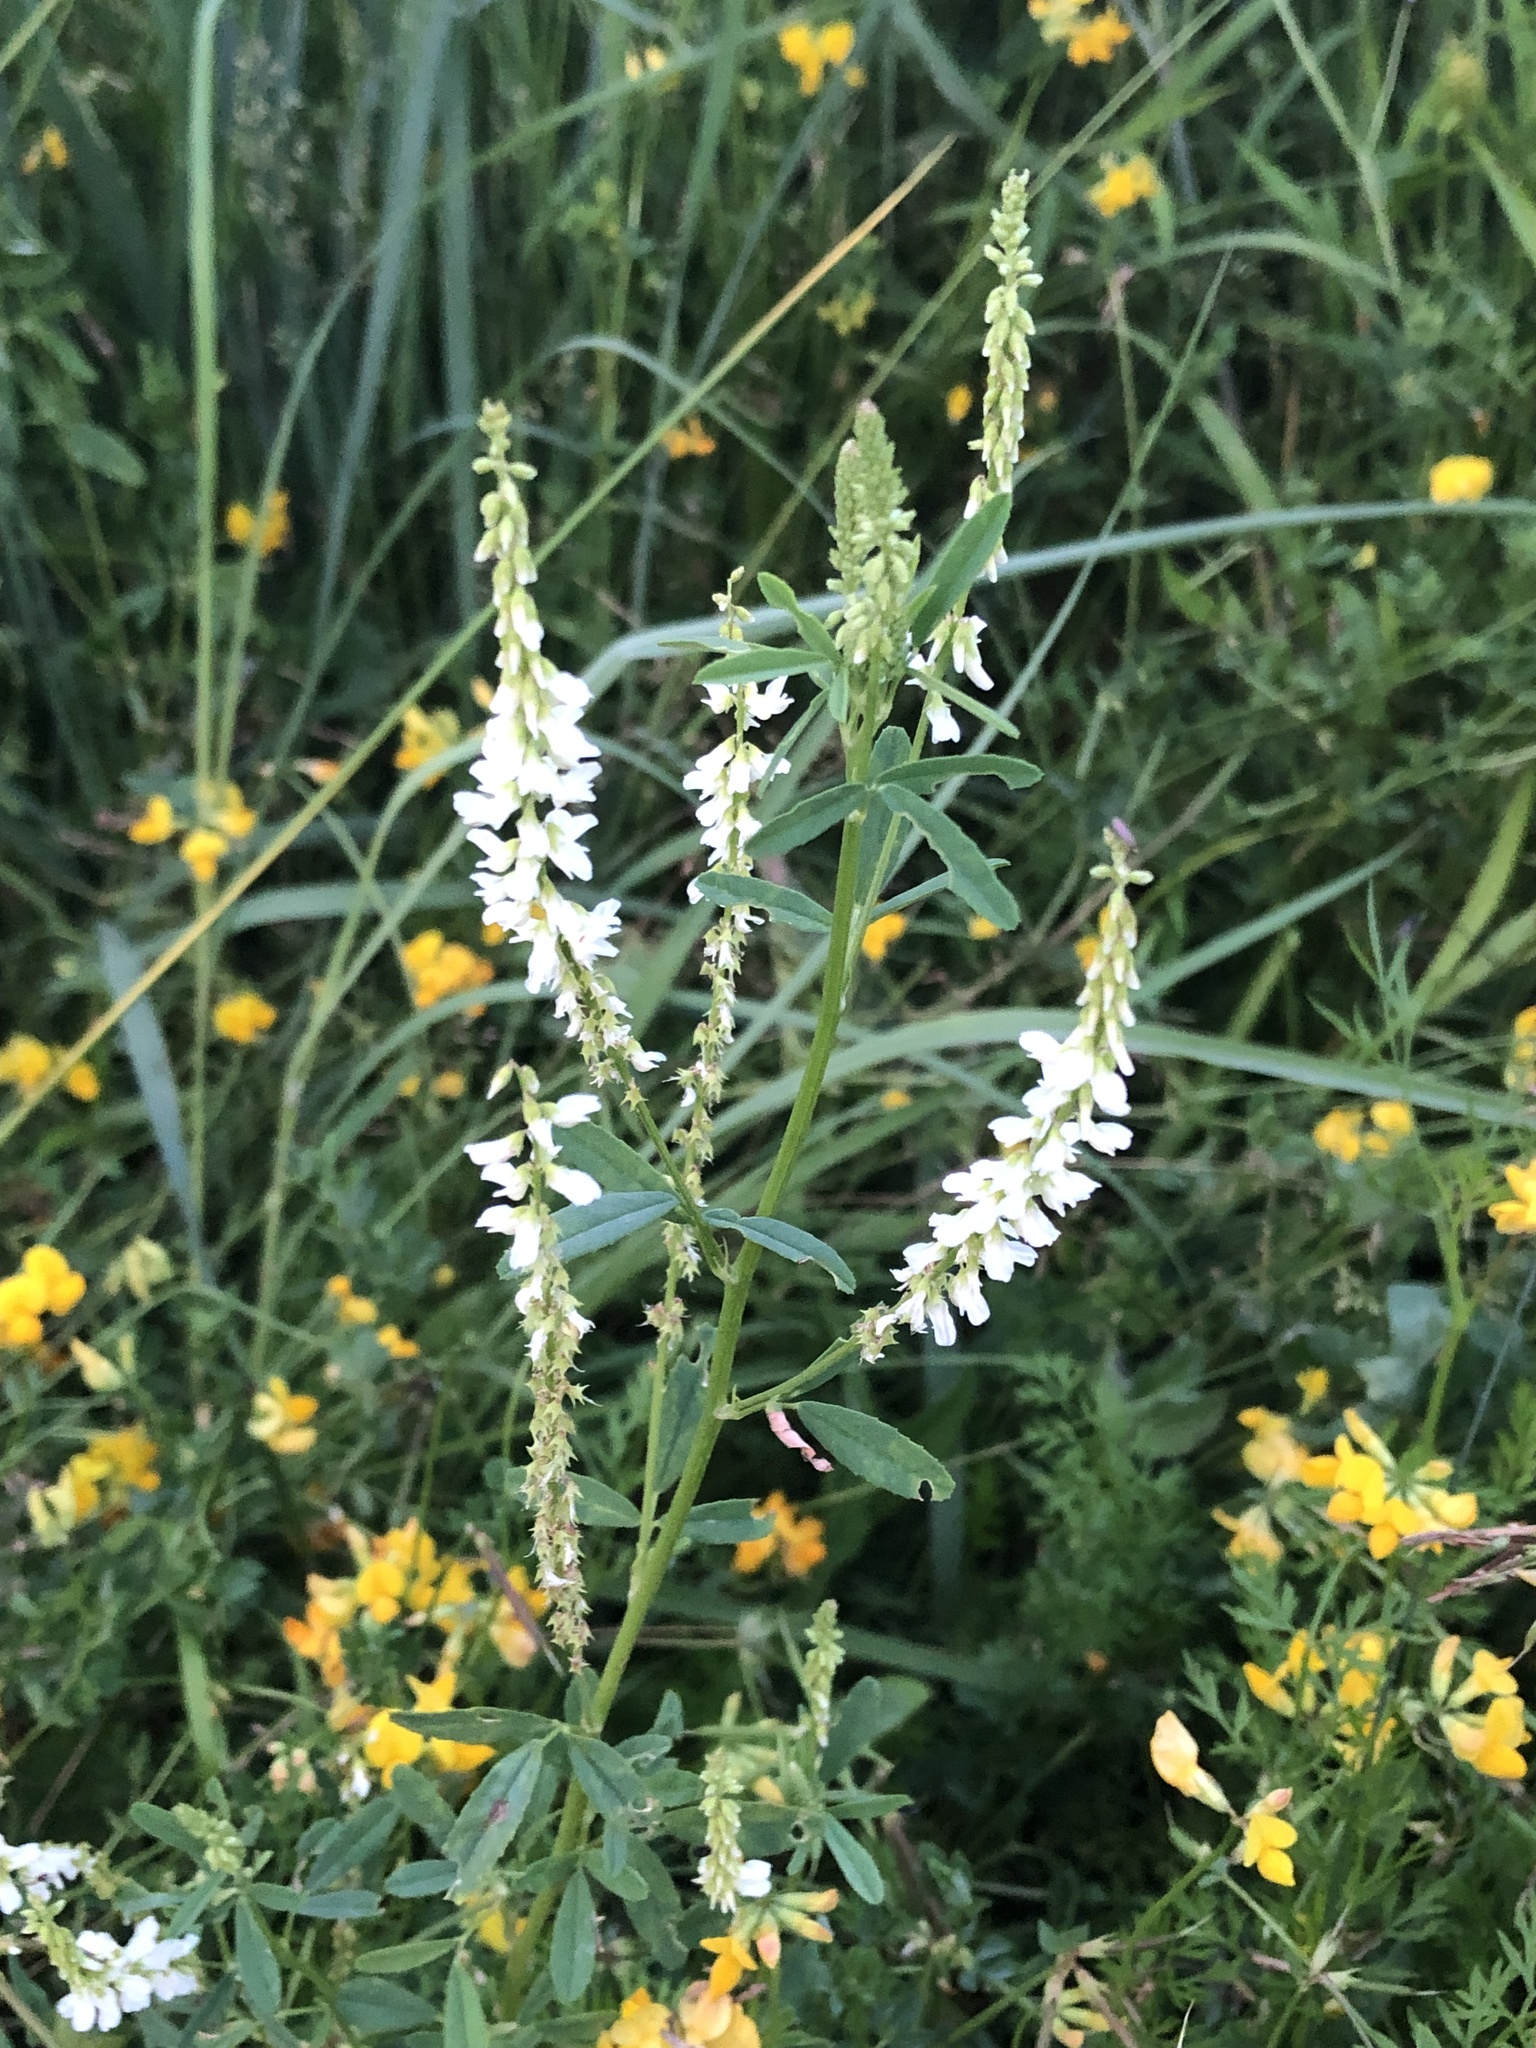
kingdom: Plantae
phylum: Tracheophyta
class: Magnoliopsida
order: Fabales
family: Fabaceae
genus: Melilotus
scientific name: Melilotus albus
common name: White melilot
